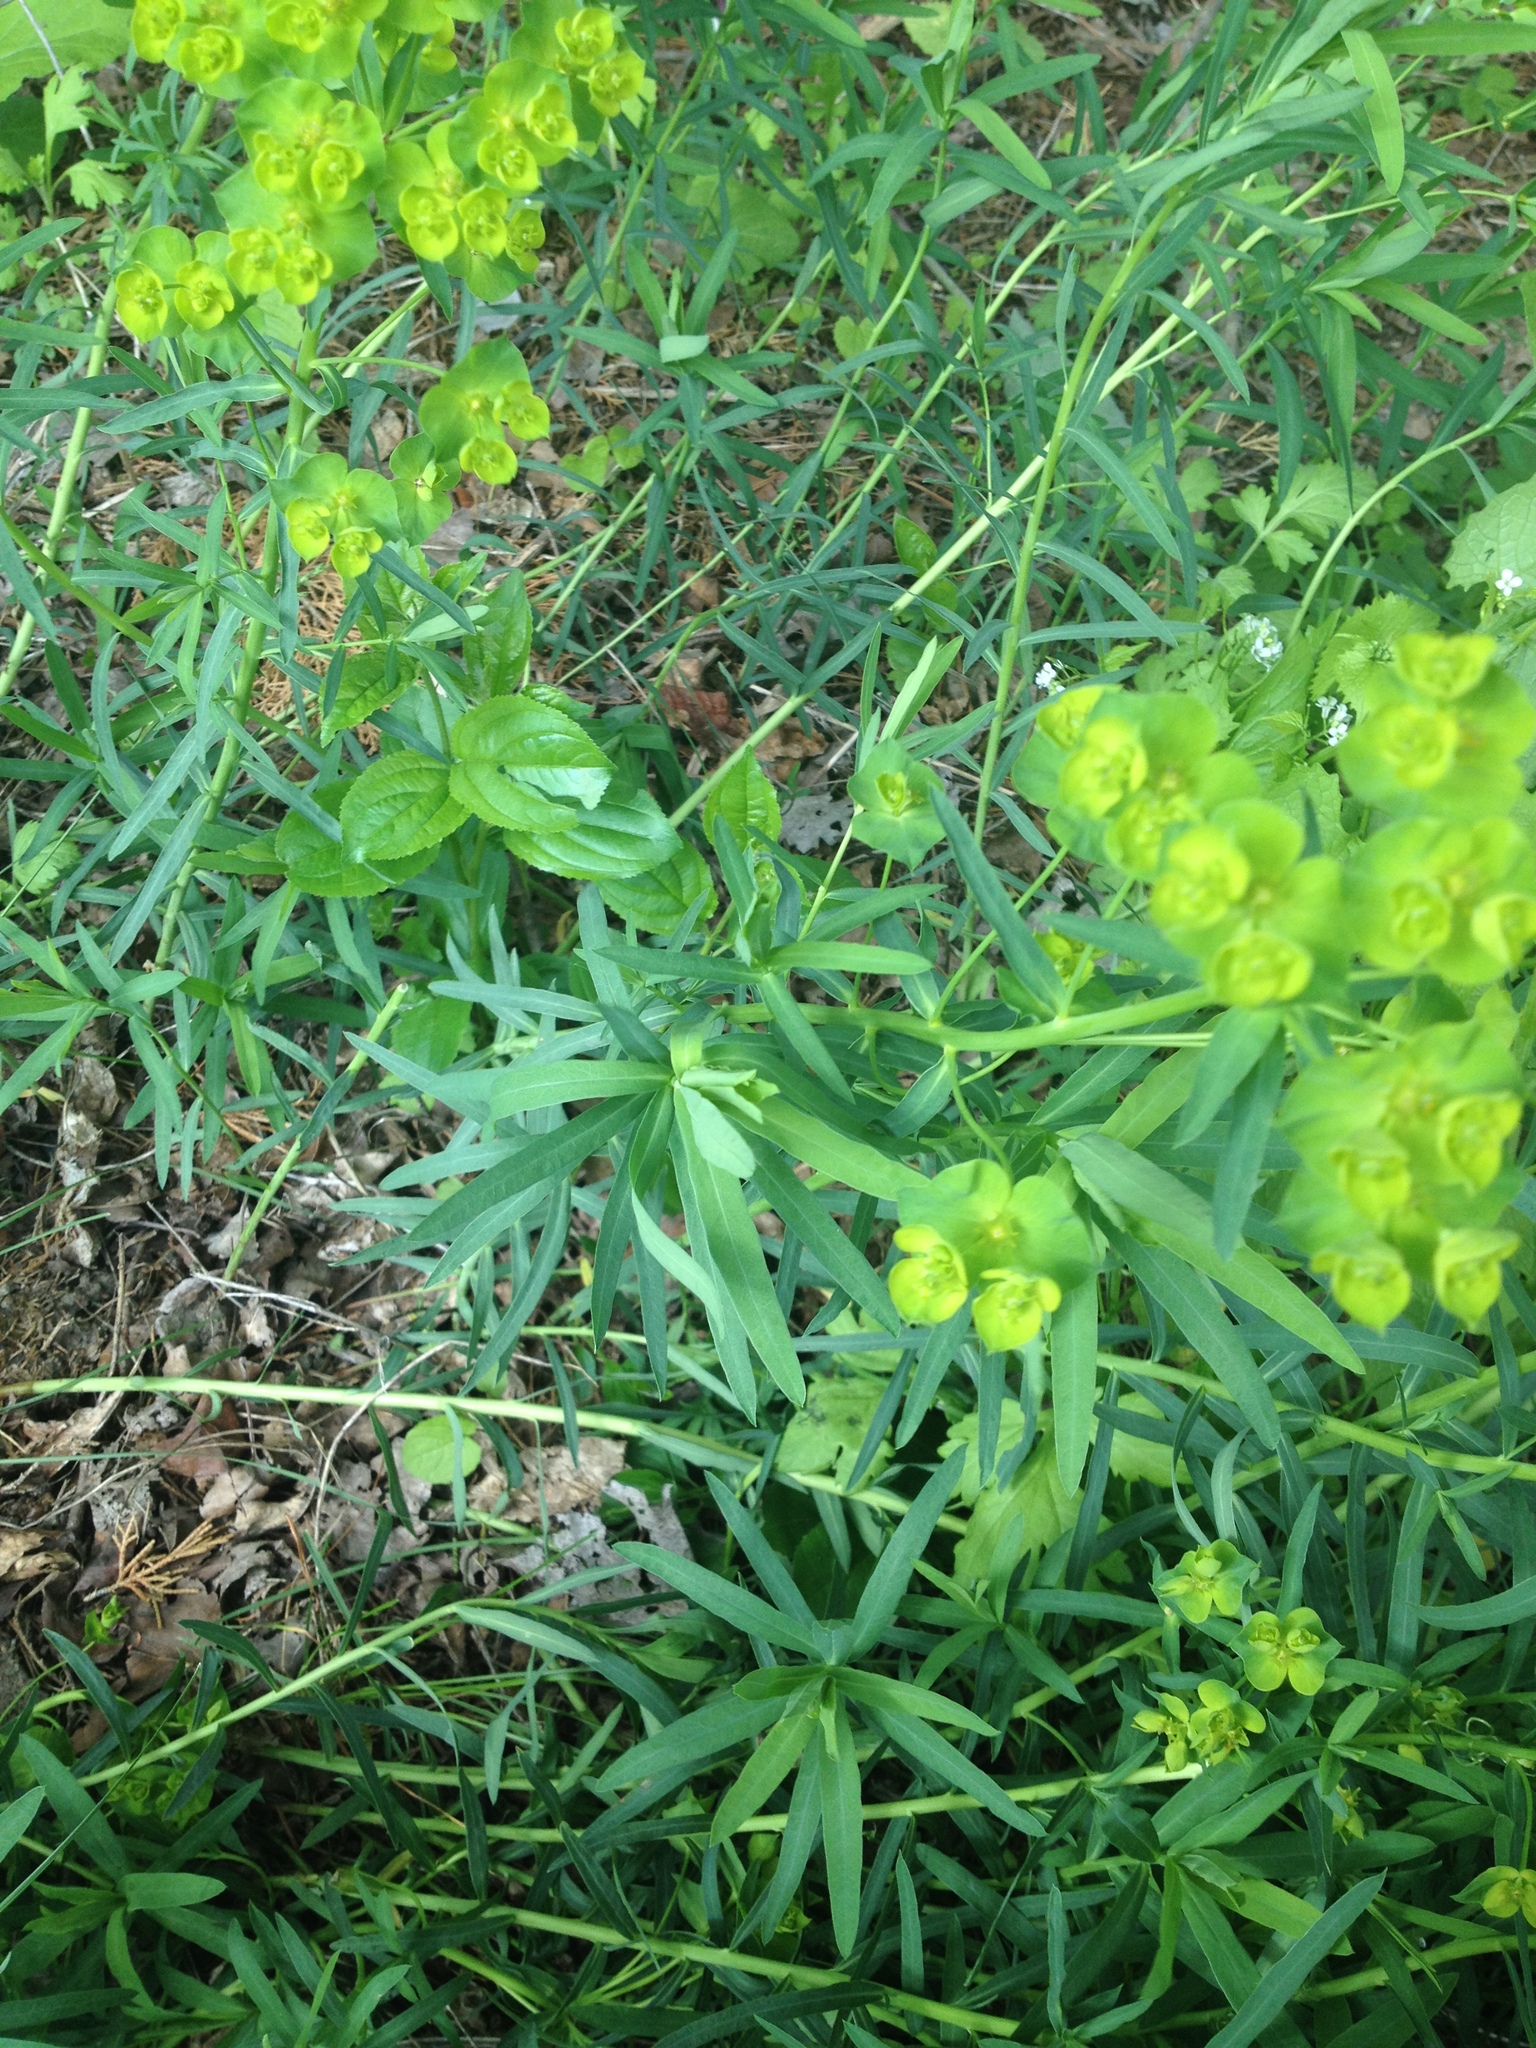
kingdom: Plantae
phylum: Tracheophyta
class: Magnoliopsida
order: Malpighiales
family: Euphorbiaceae
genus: Euphorbia
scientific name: Euphorbia virgata
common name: Leafy spurge
